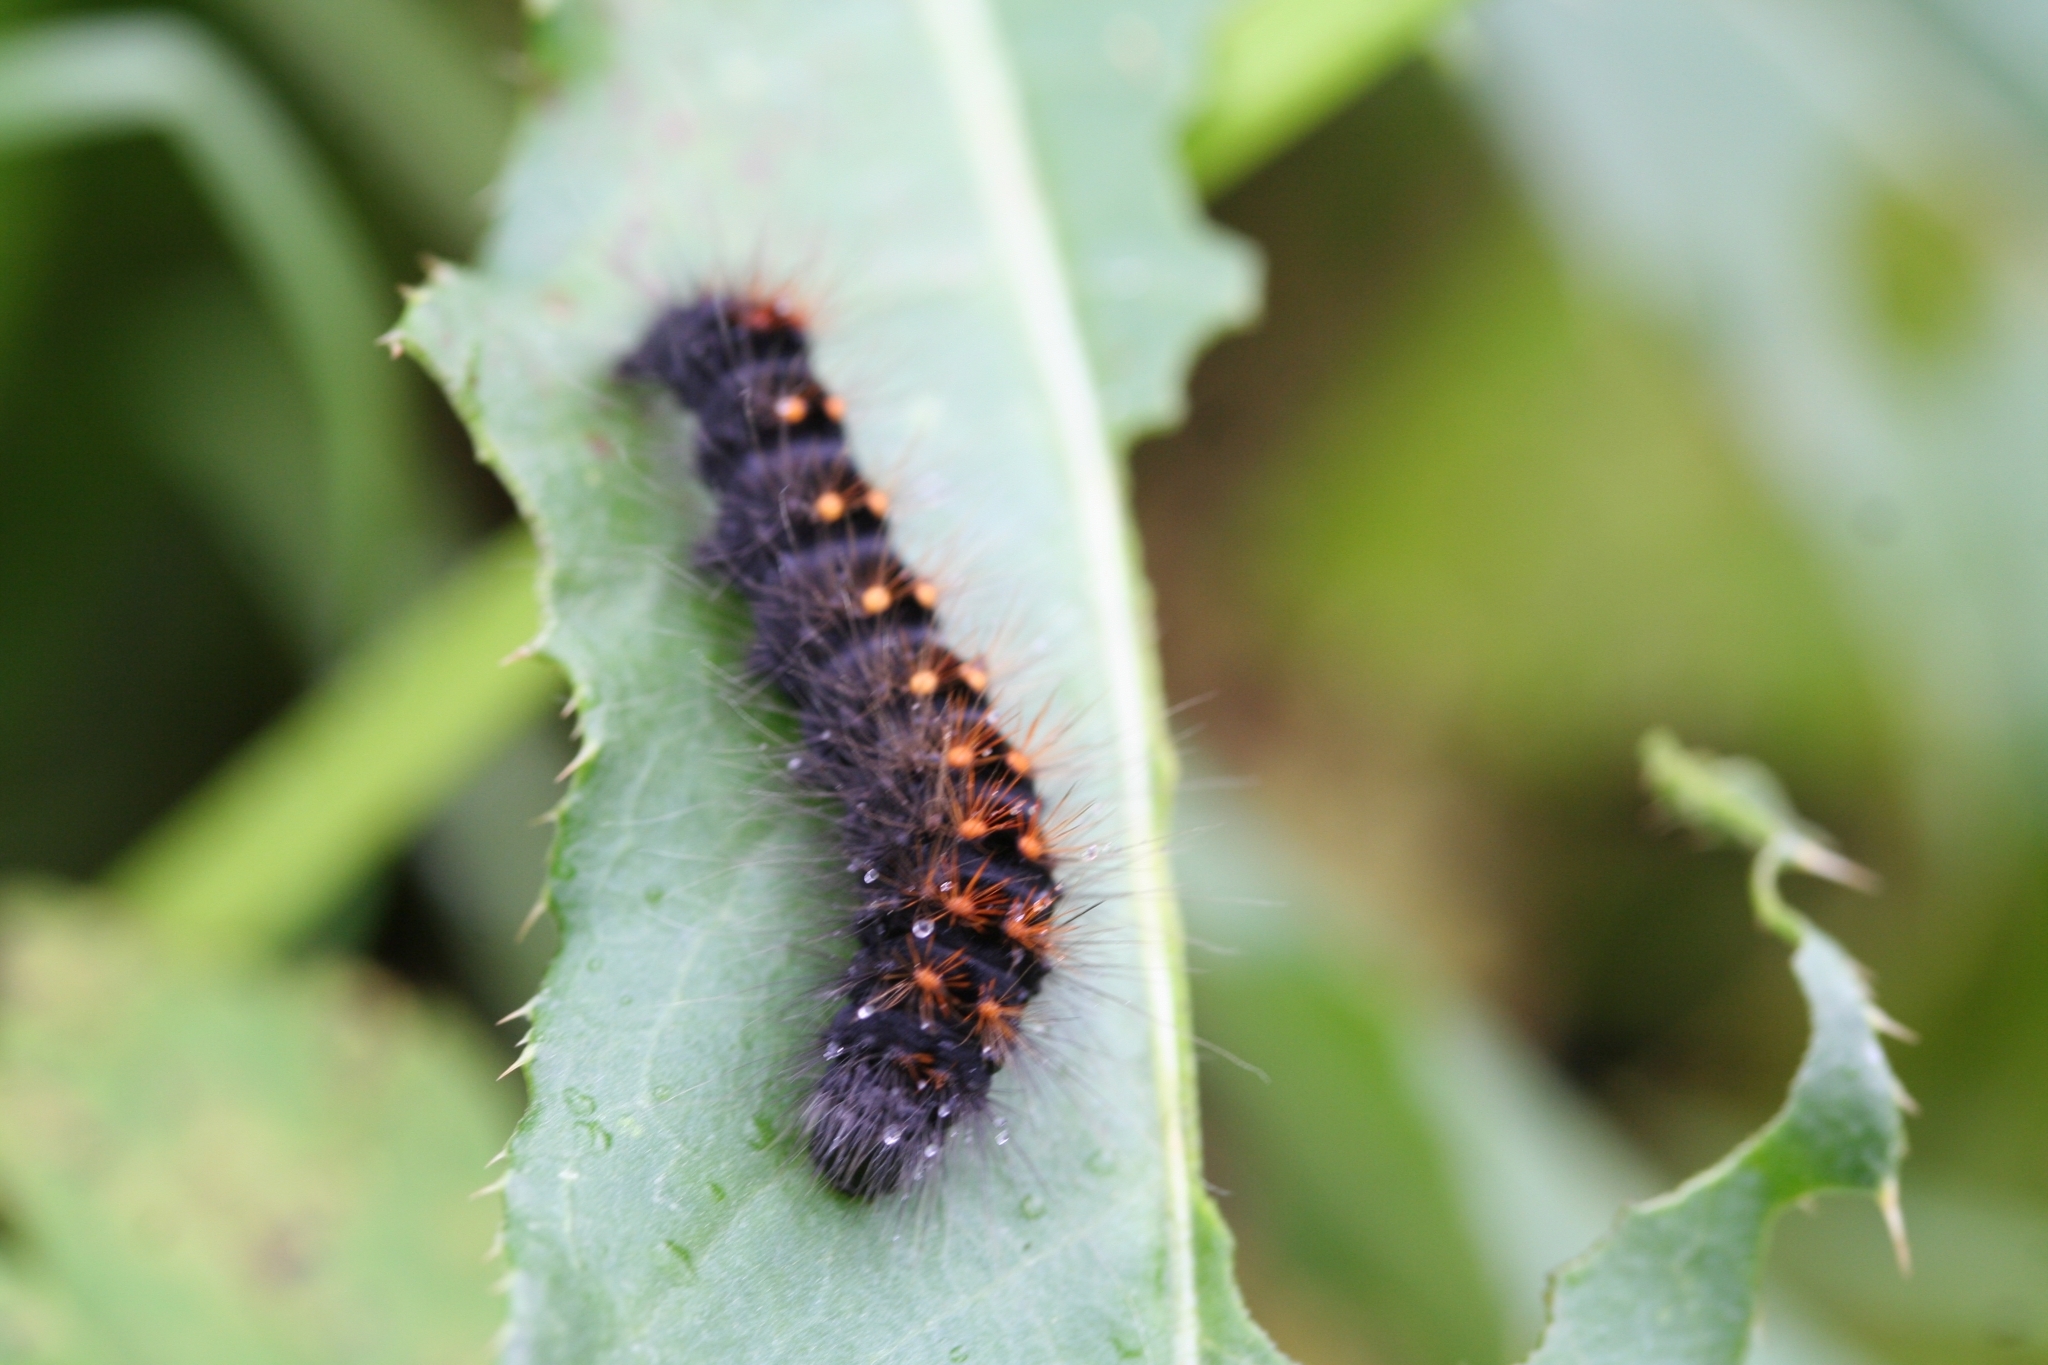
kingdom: Animalia
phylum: Arthropoda
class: Insecta
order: Lepidoptera
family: Noctuidae
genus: Acronicta
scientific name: Acronicta auricoma
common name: Scarce dagger
